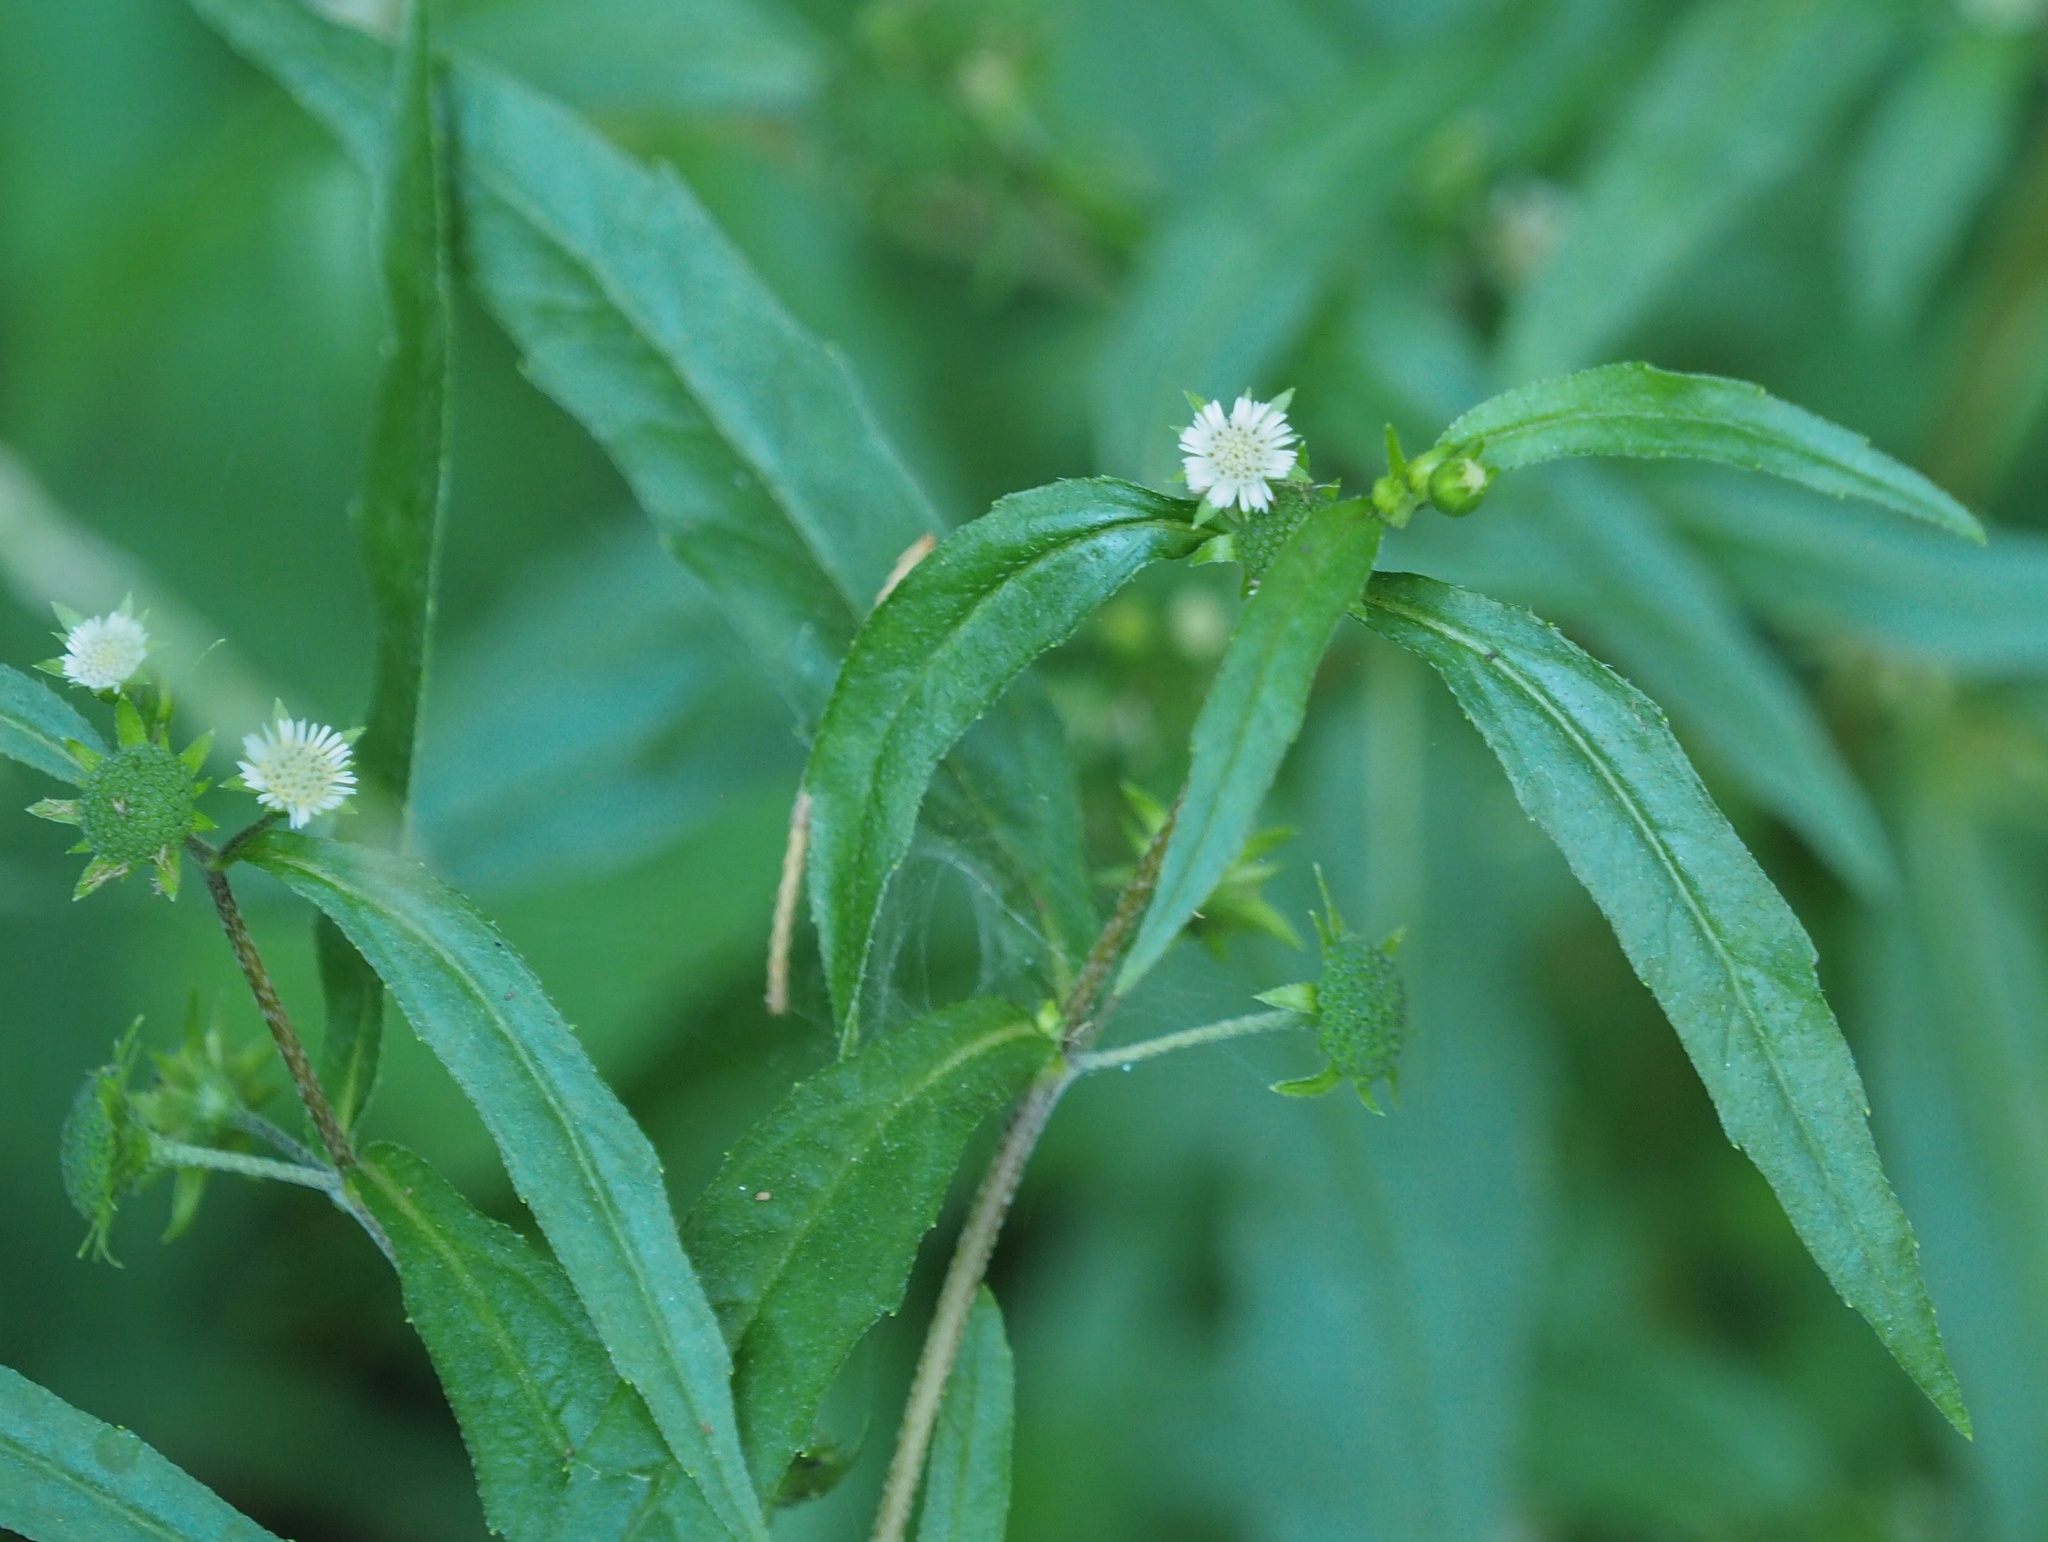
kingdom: Plantae
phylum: Tracheophyta
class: Magnoliopsida
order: Asterales
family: Asteraceae
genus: Eclipta
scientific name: Eclipta prostrata
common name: False daisy
